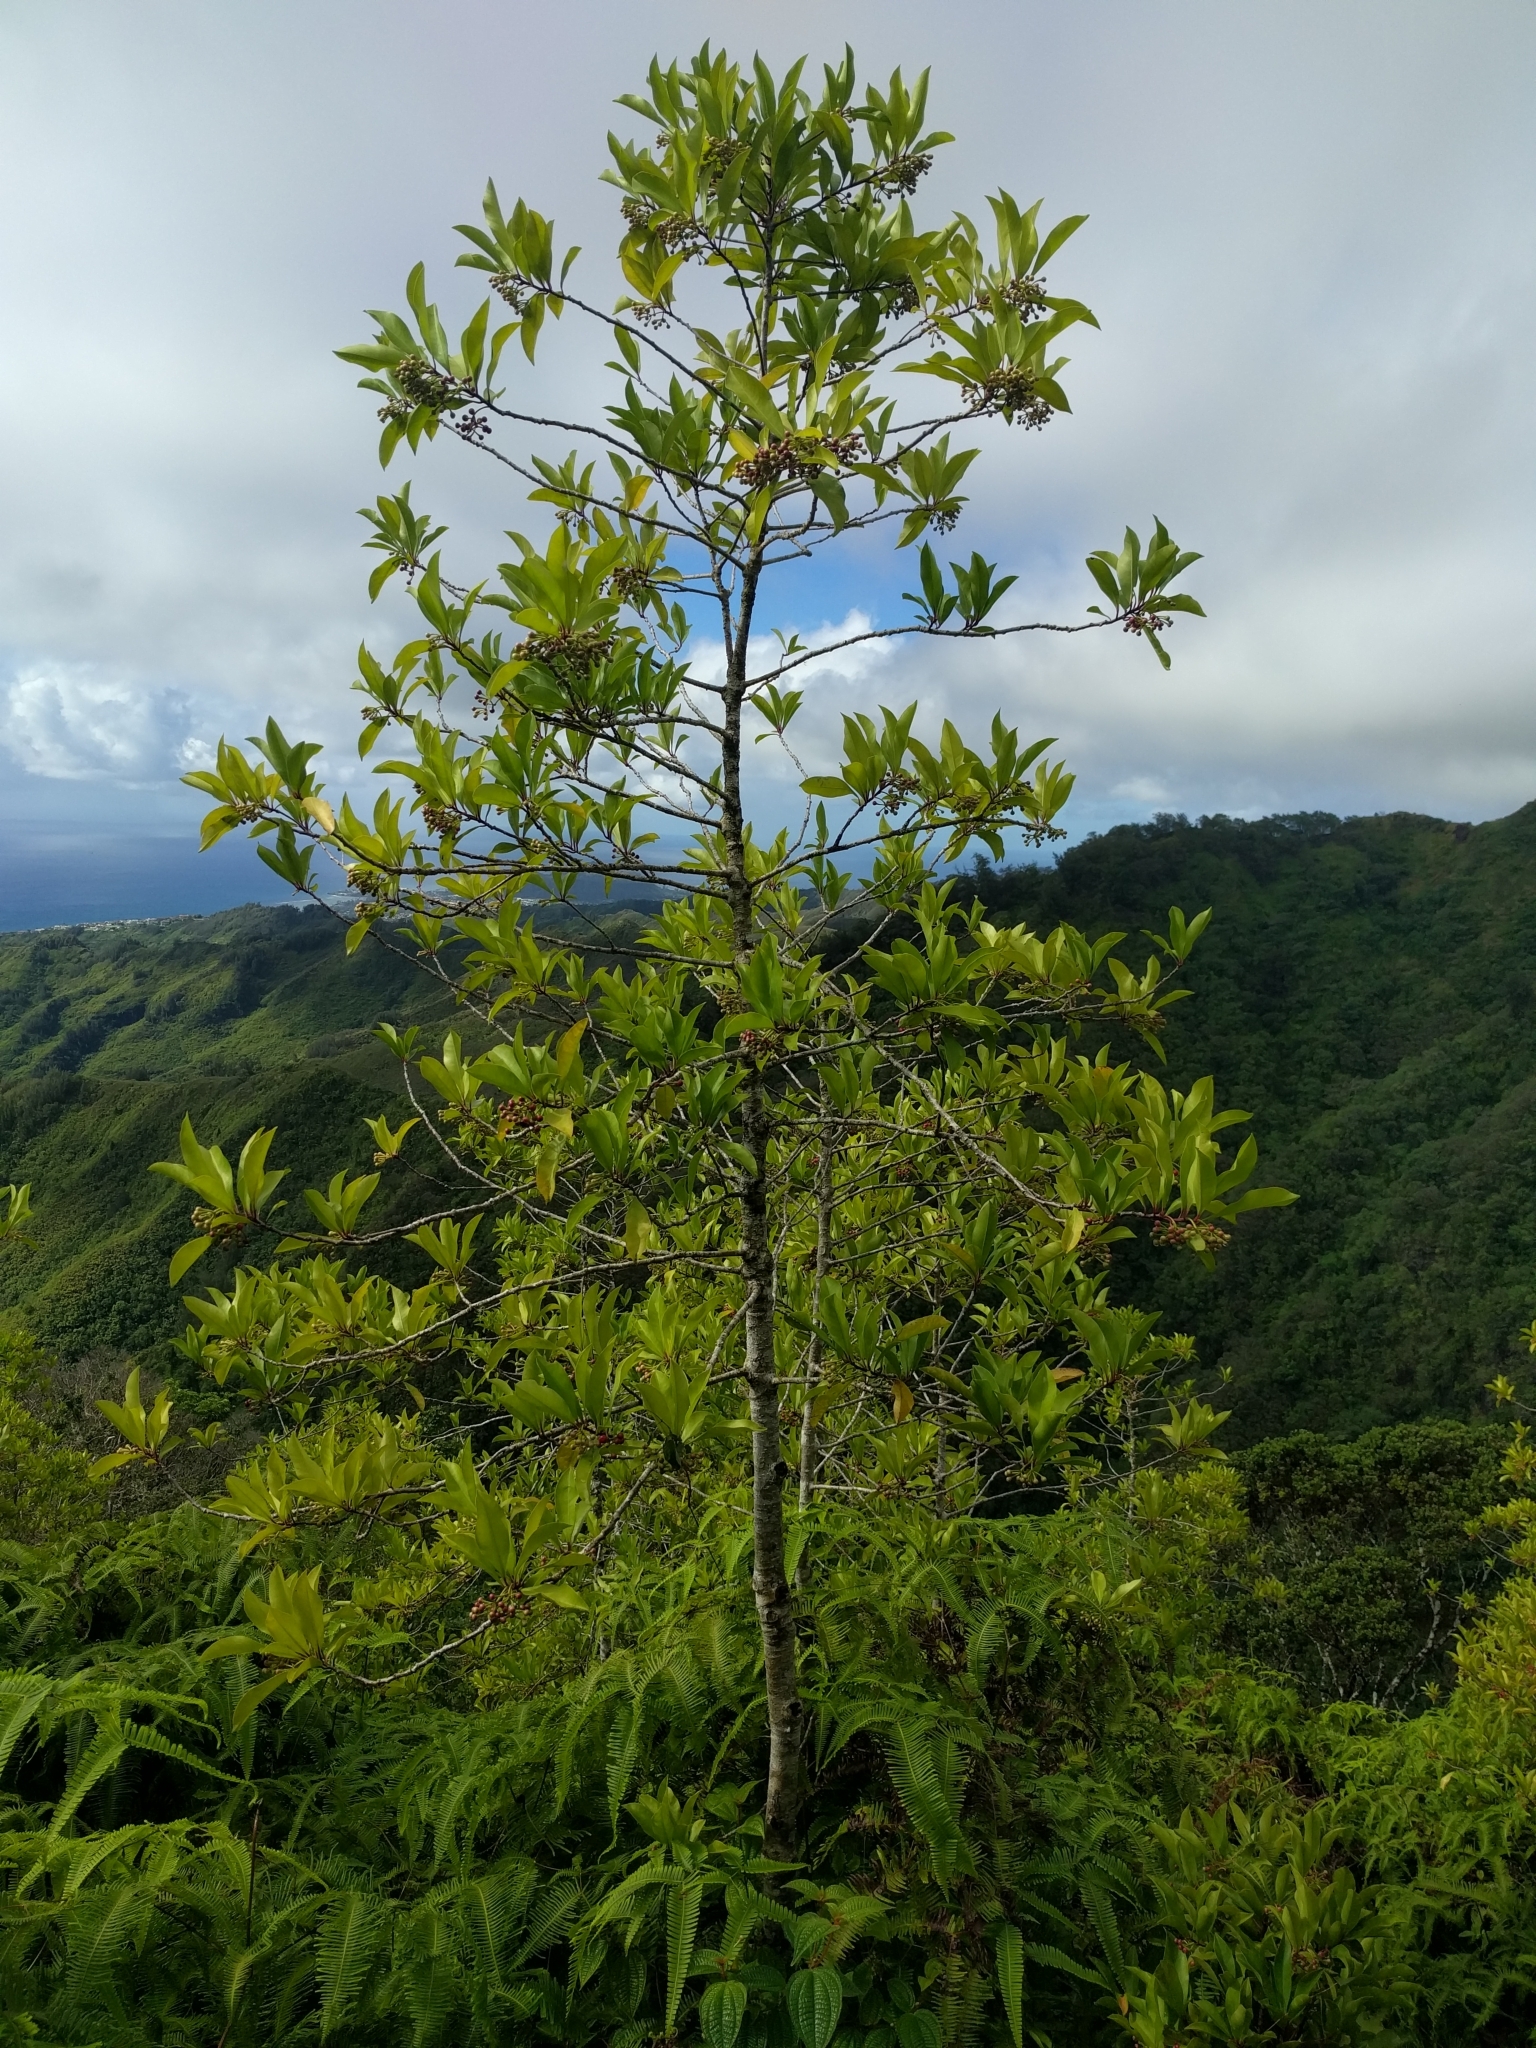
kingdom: Plantae
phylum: Tracheophyta
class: Magnoliopsida
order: Ericales
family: Primulaceae
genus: Ardisia
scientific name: Ardisia elliptica
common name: Shoebutton
